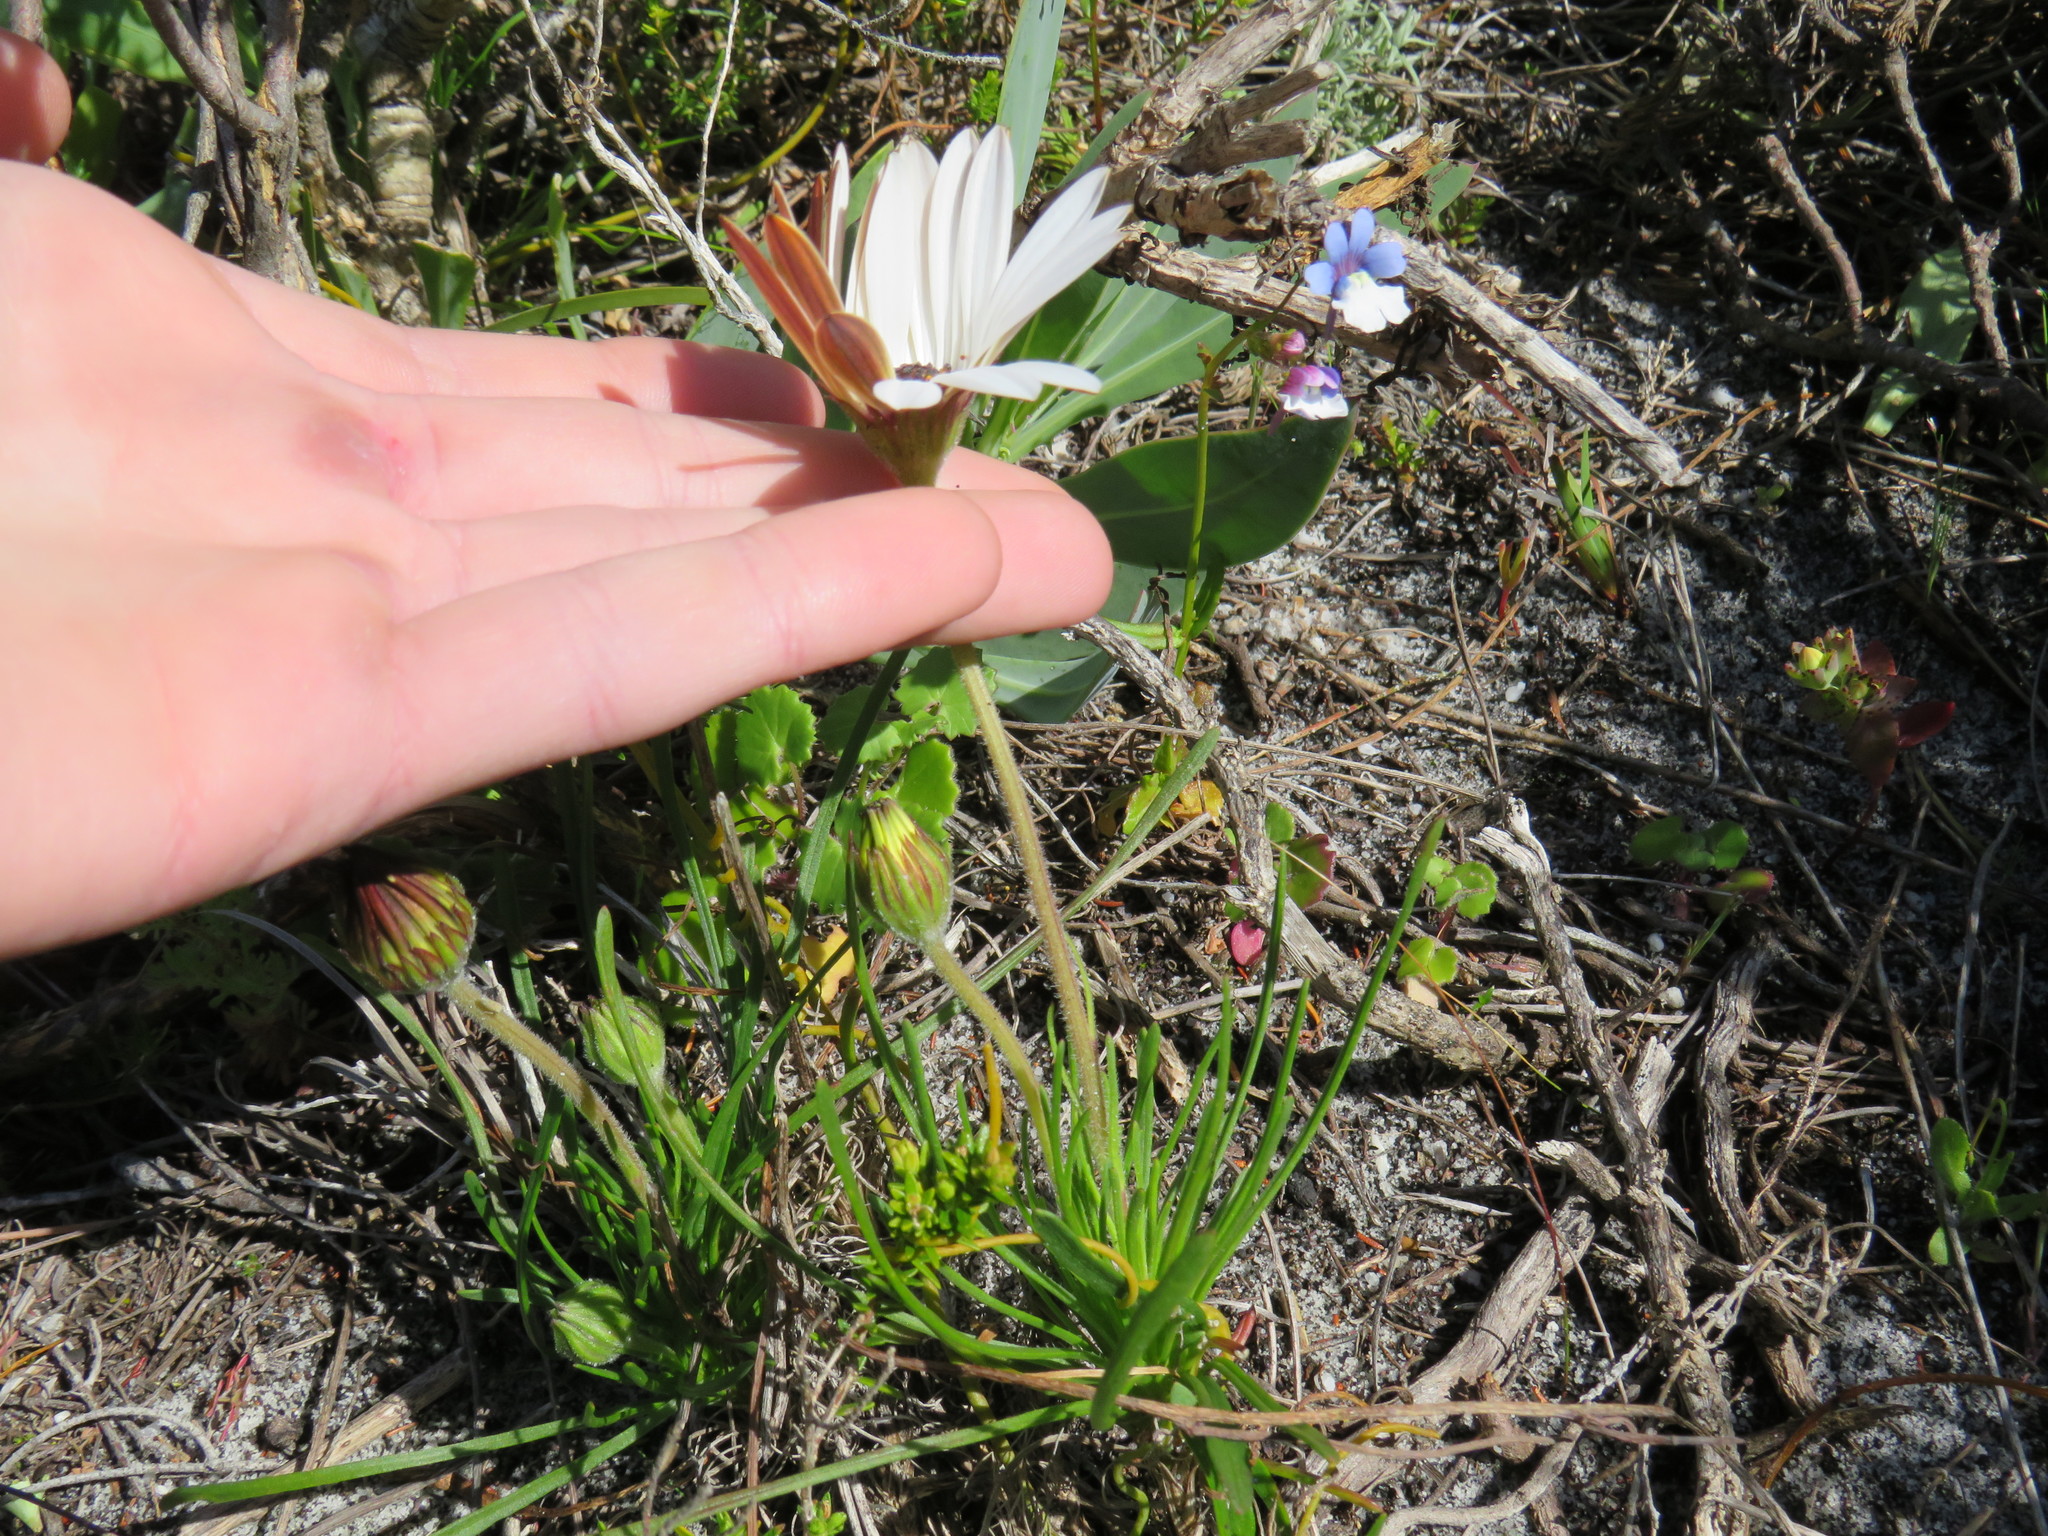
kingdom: Plantae
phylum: Tracheophyta
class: Magnoliopsida
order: Asterales
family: Asteraceae
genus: Dimorphotheca
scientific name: Dimorphotheca nudicaulis
